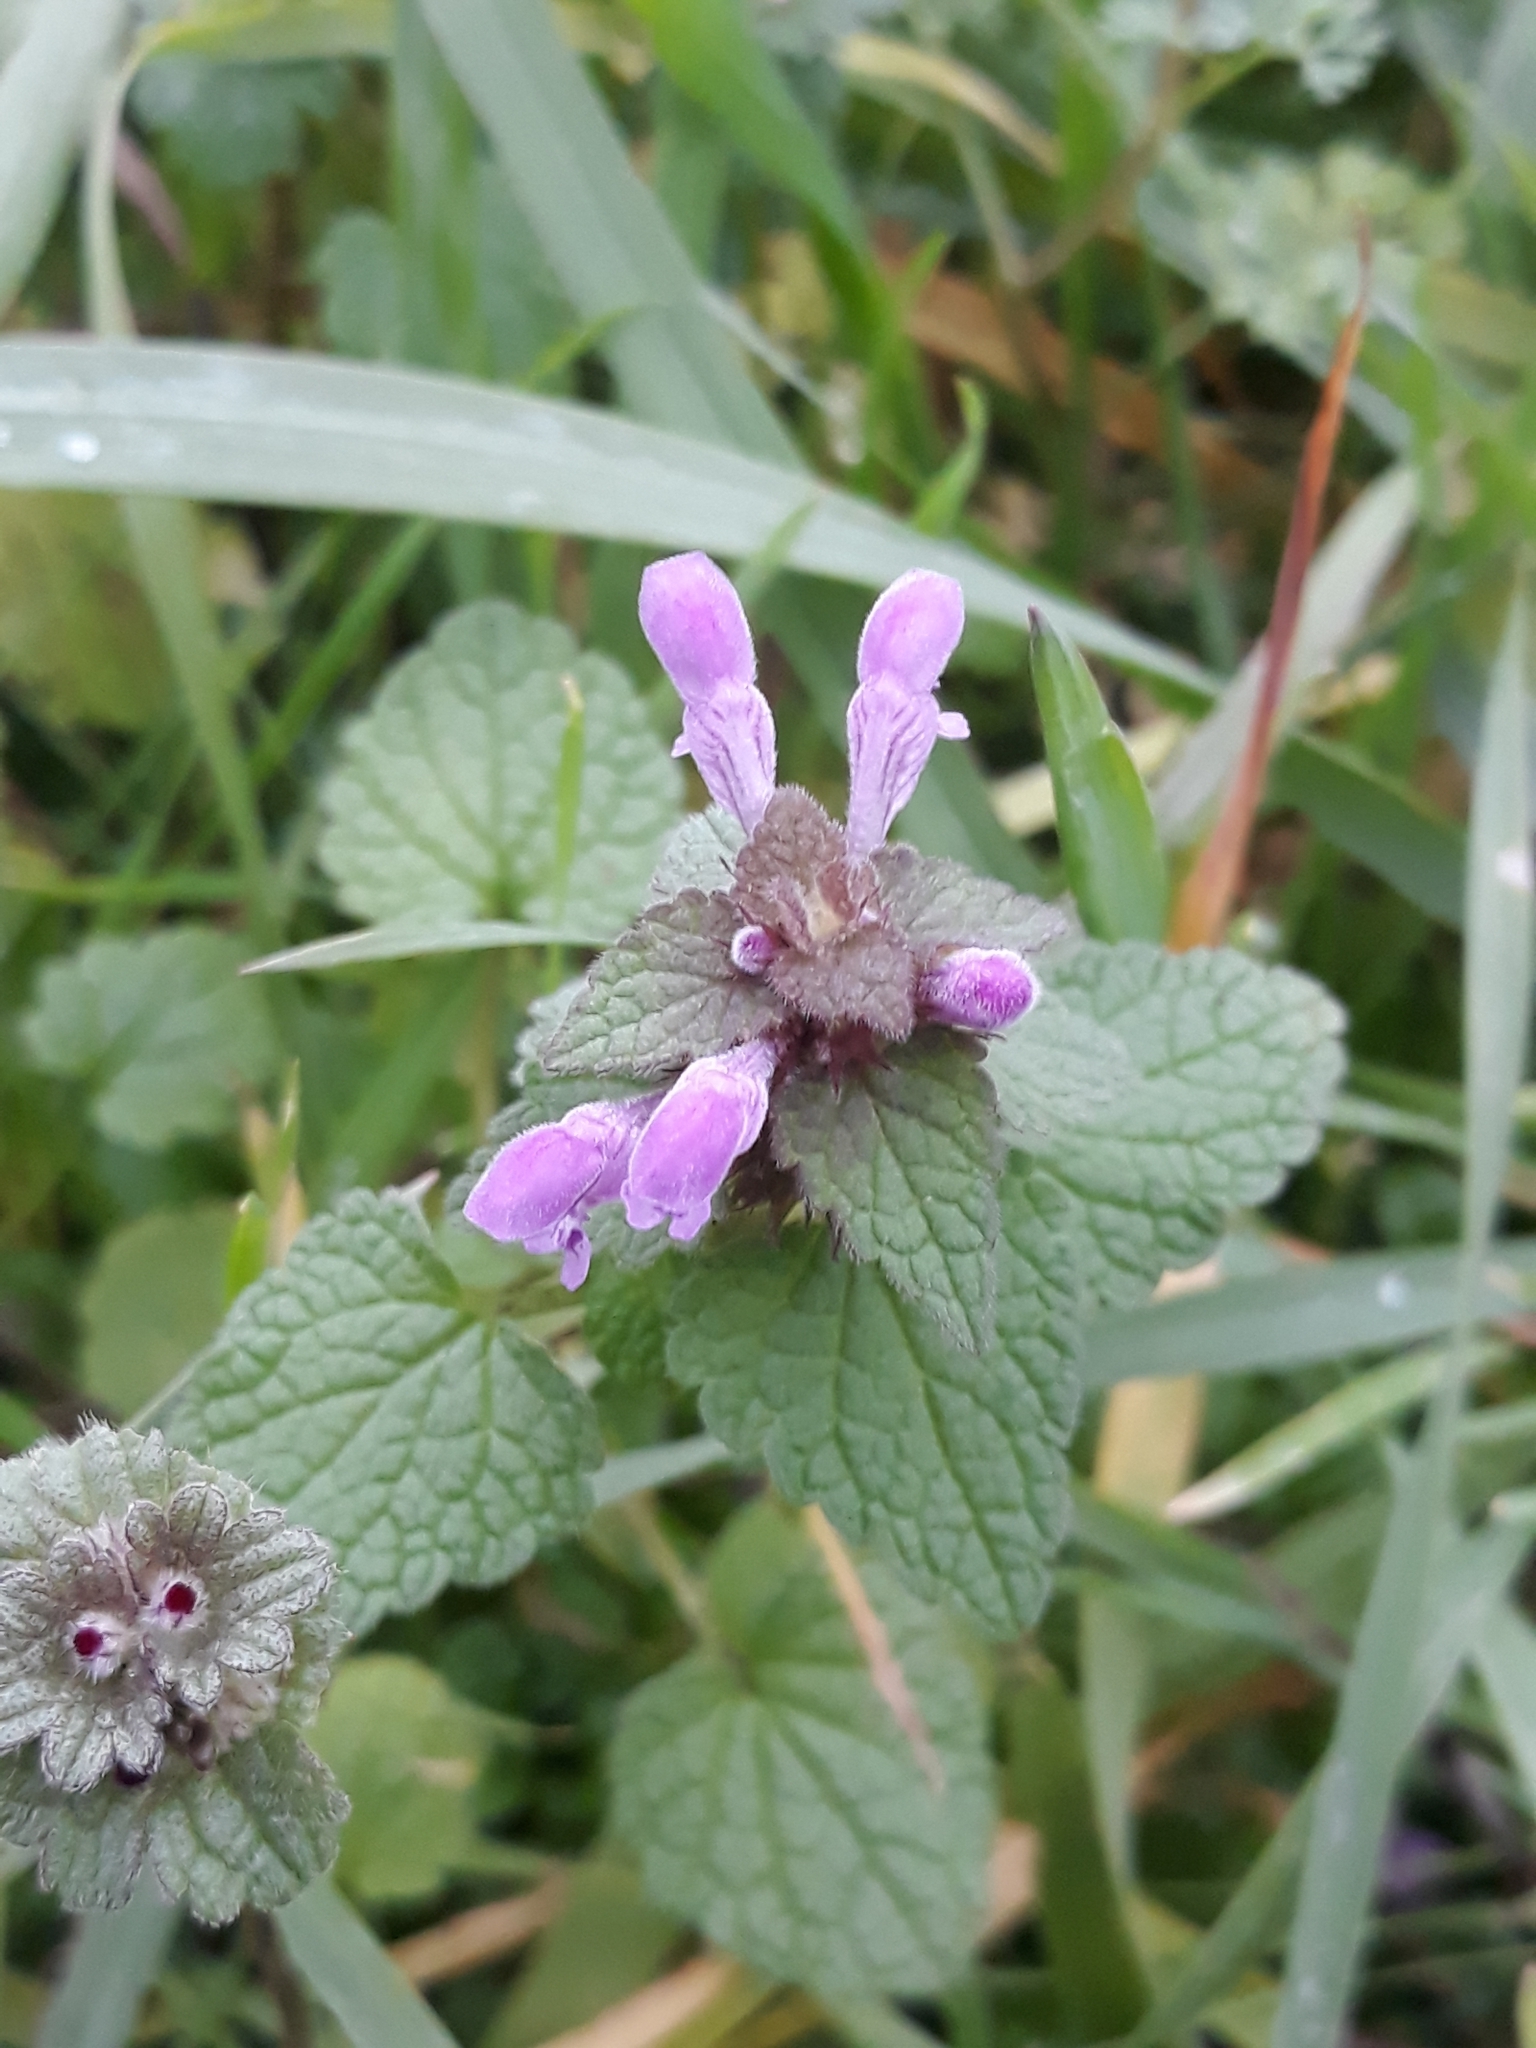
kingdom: Plantae
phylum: Tracheophyta
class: Magnoliopsida
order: Lamiales
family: Lamiaceae
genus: Lamium
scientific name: Lamium purpureum
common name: Red dead-nettle
